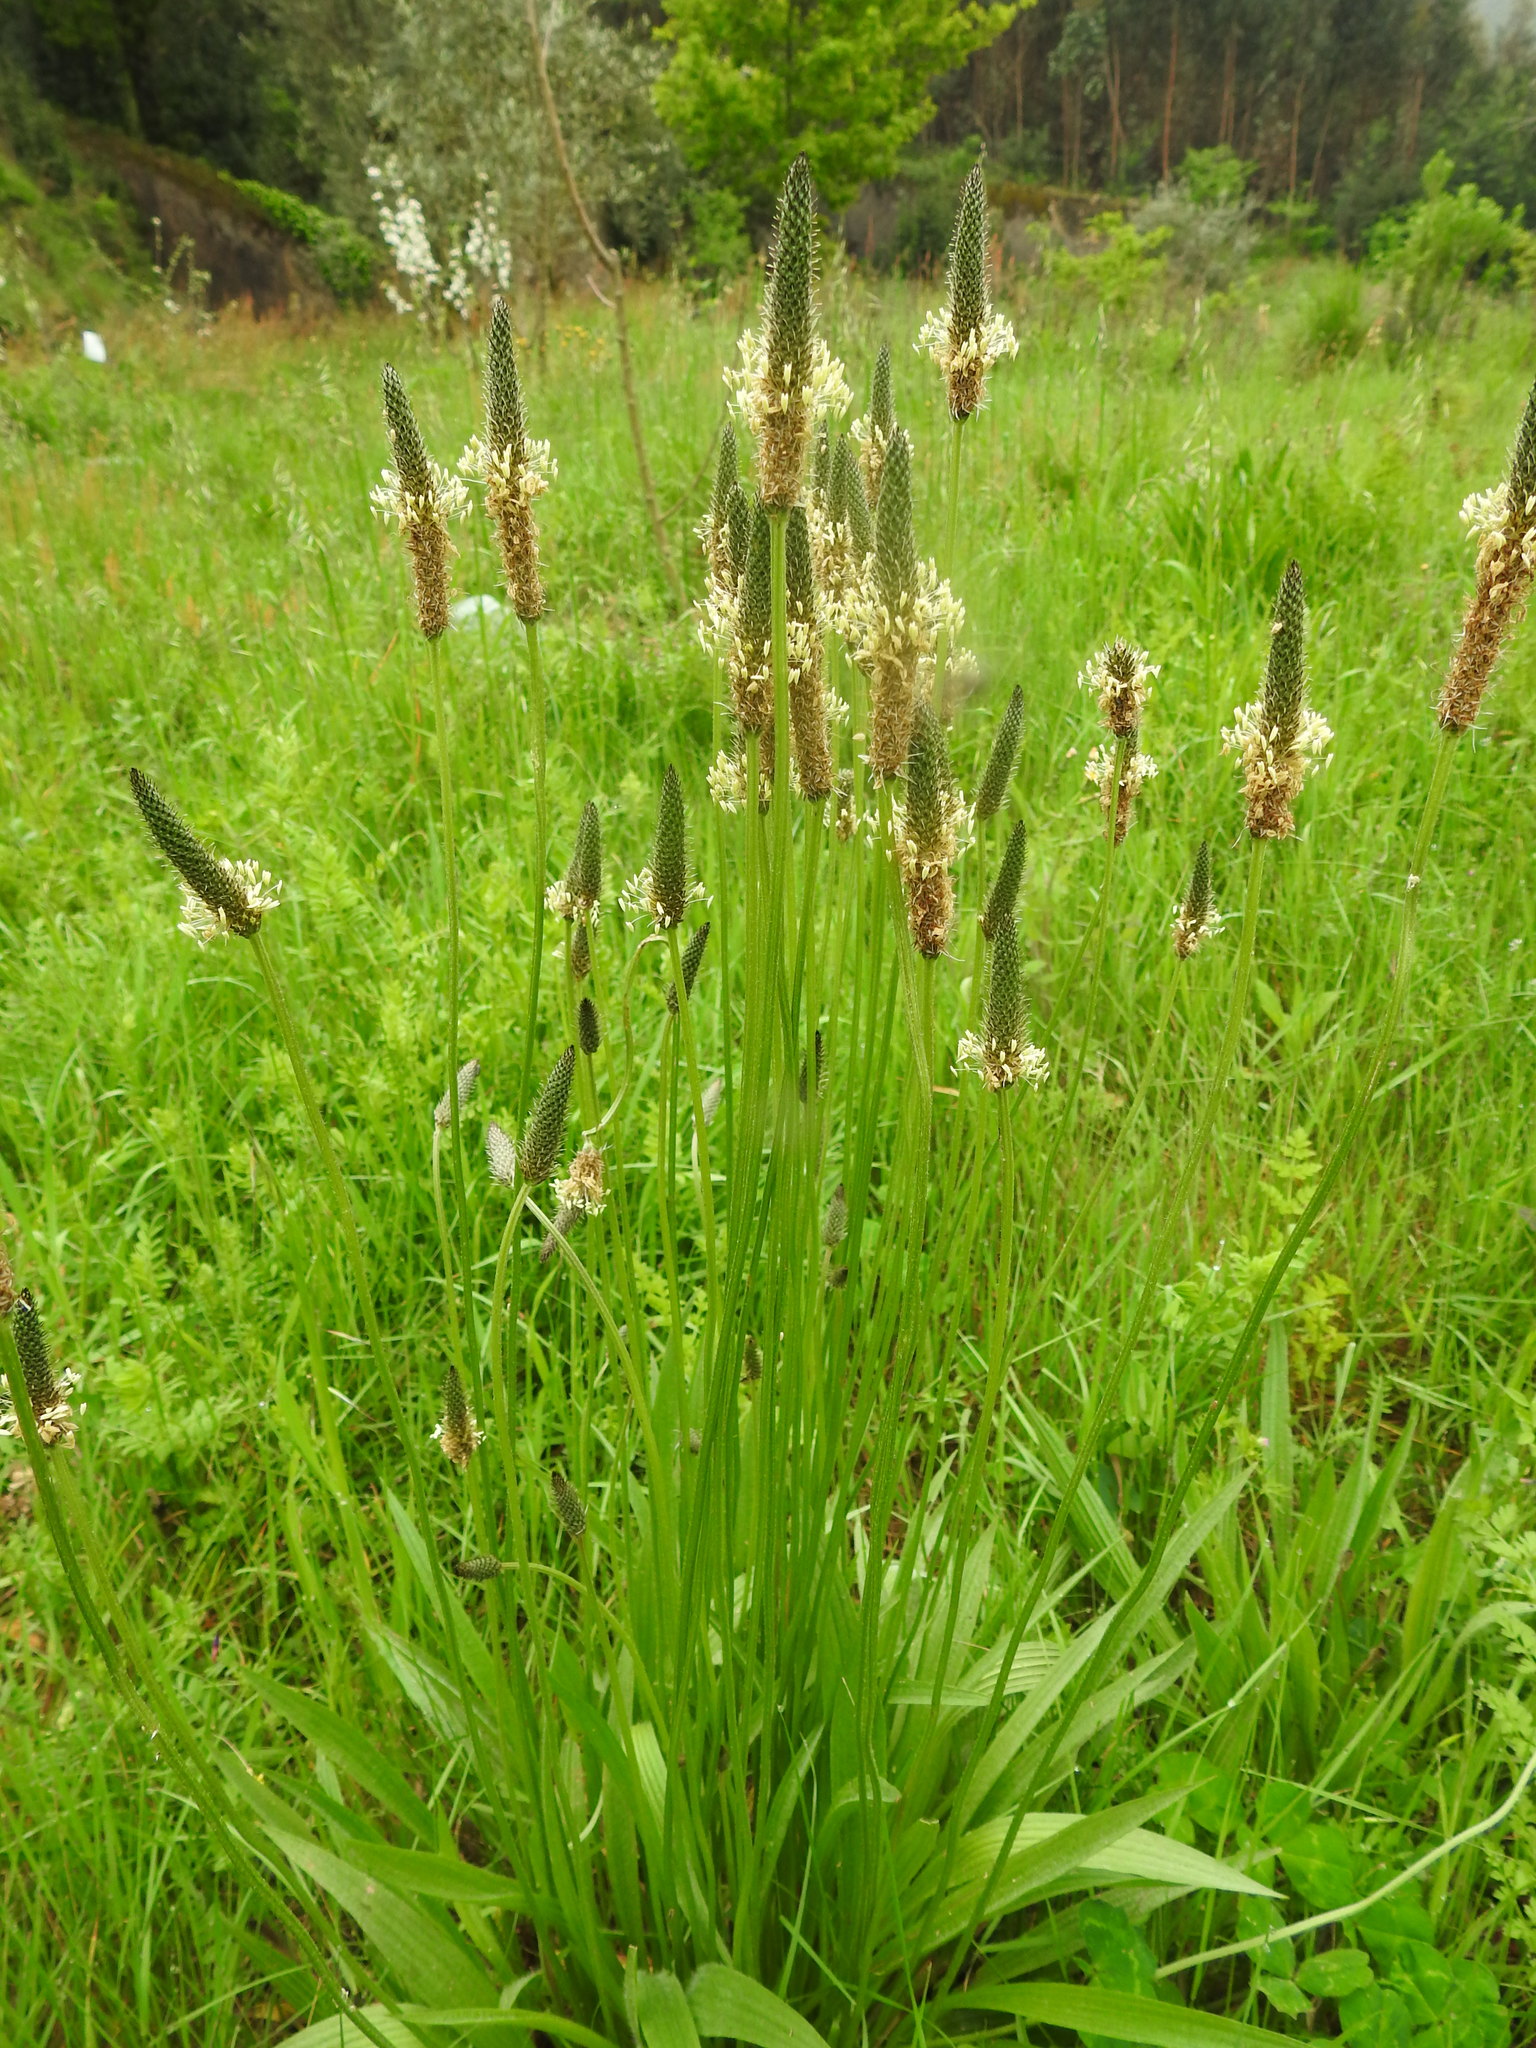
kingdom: Plantae
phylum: Tracheophyta
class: Magnoliopsida
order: Lamiales
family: Plantaginaceae
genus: Plantago
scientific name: Plantago lanceolata
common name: Ribwort plantain
